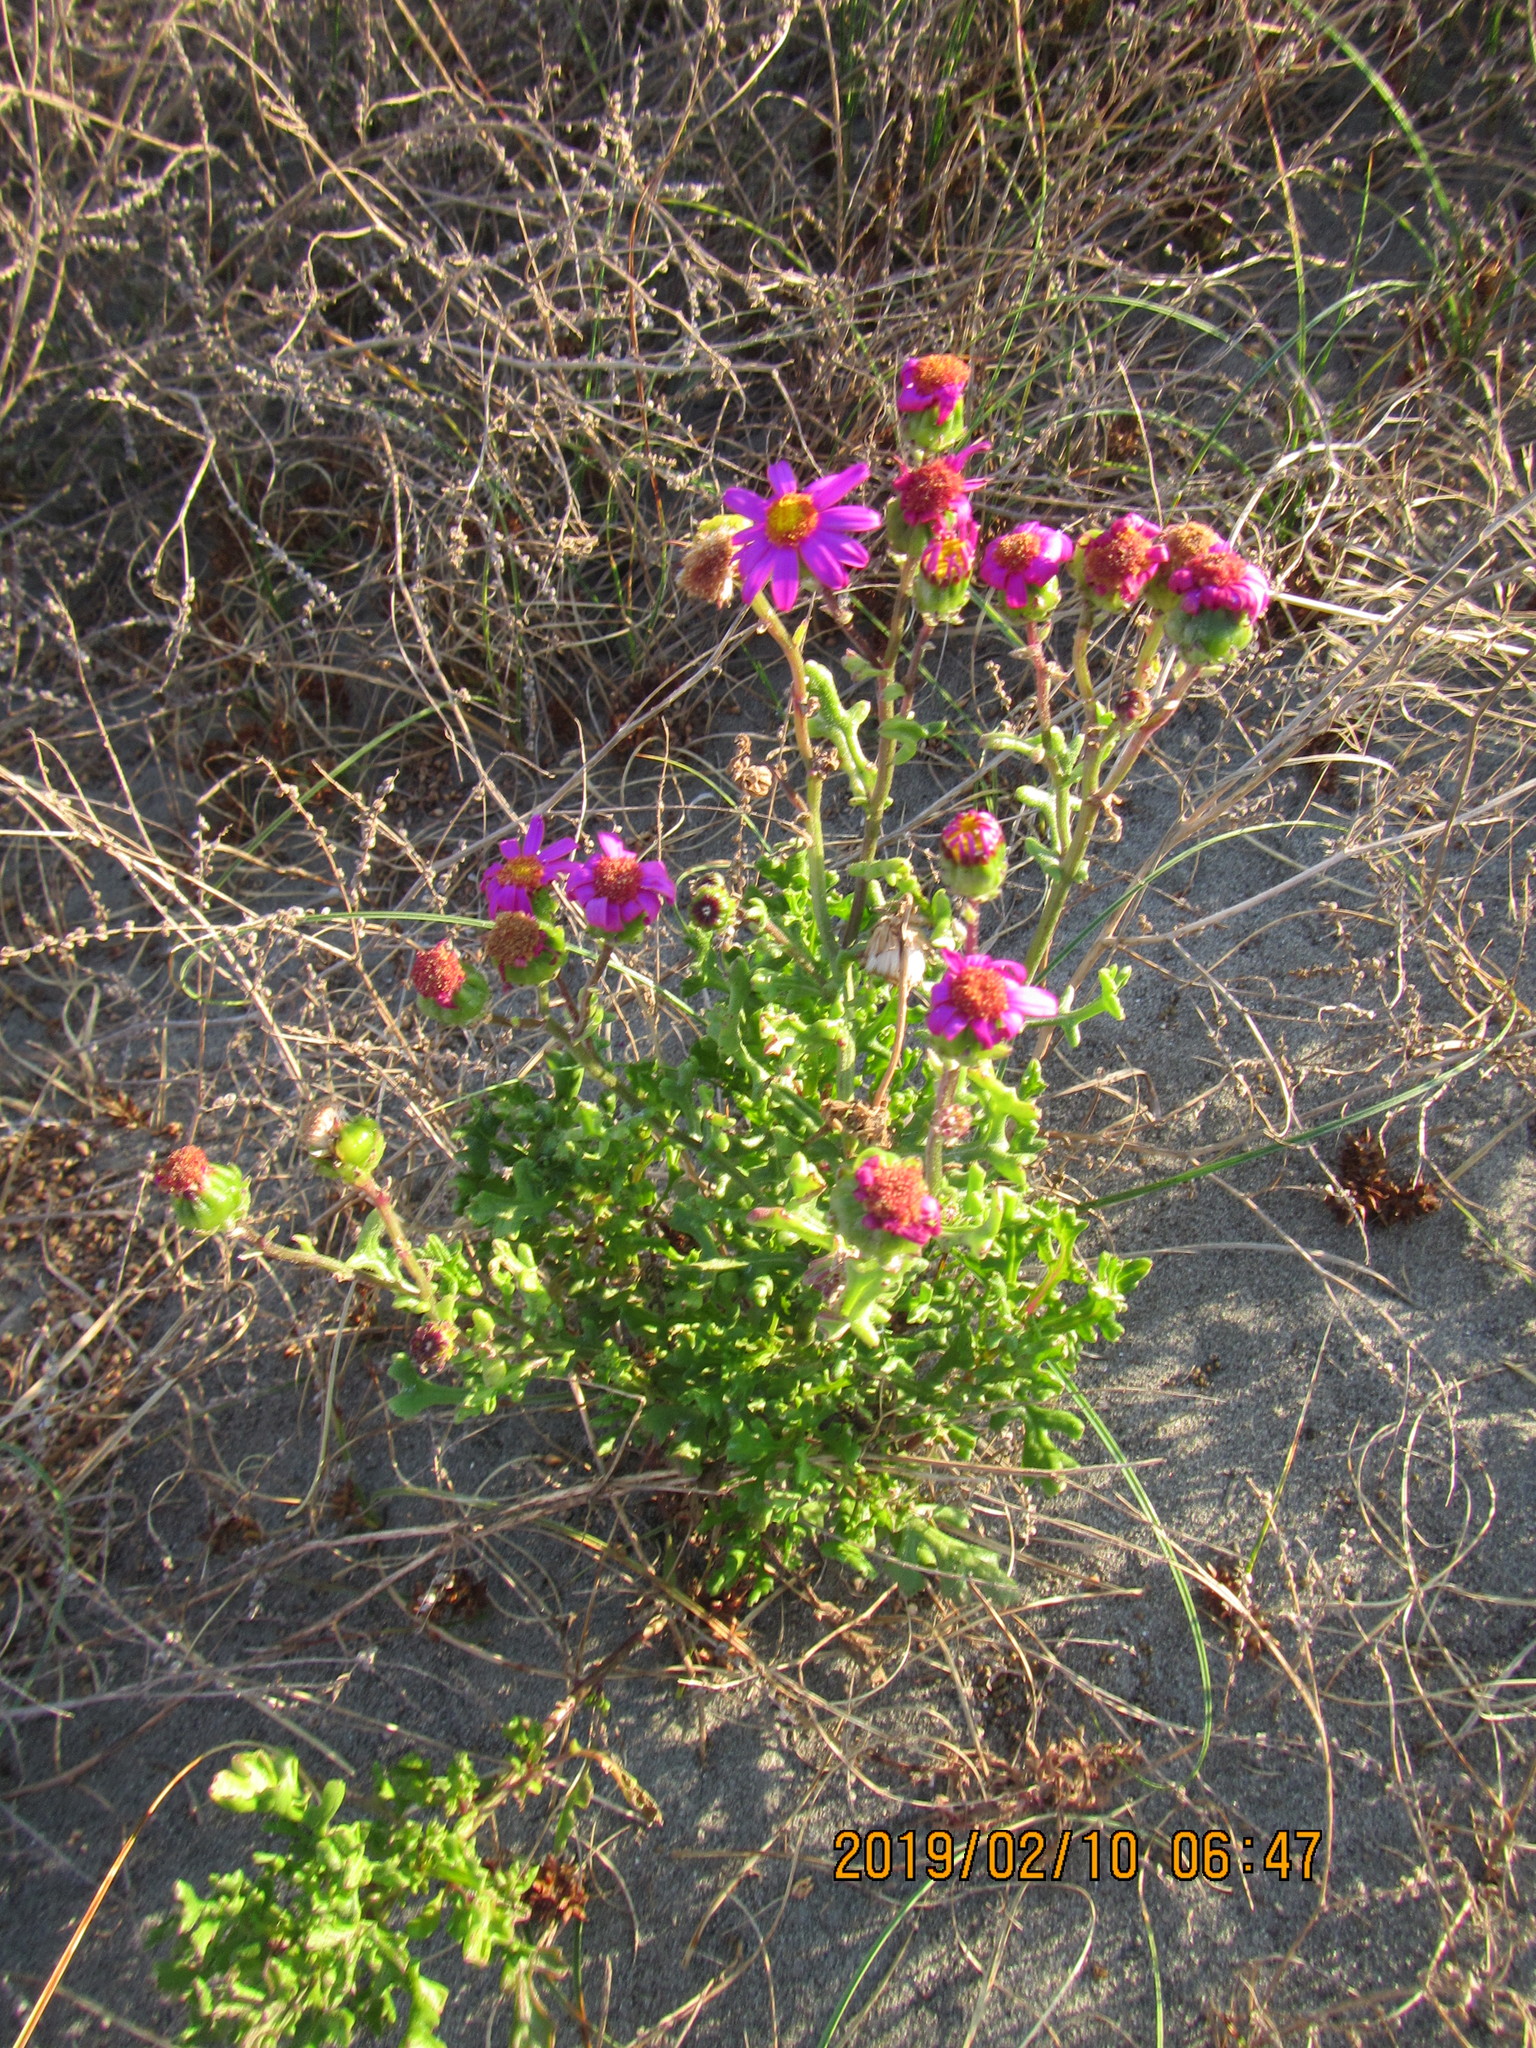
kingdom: Plantae
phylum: Tracheophyta
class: Magnoliopsida
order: Asterales
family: Asteraceae
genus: Senecio
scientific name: Senecio elegans
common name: Purple groundsel
